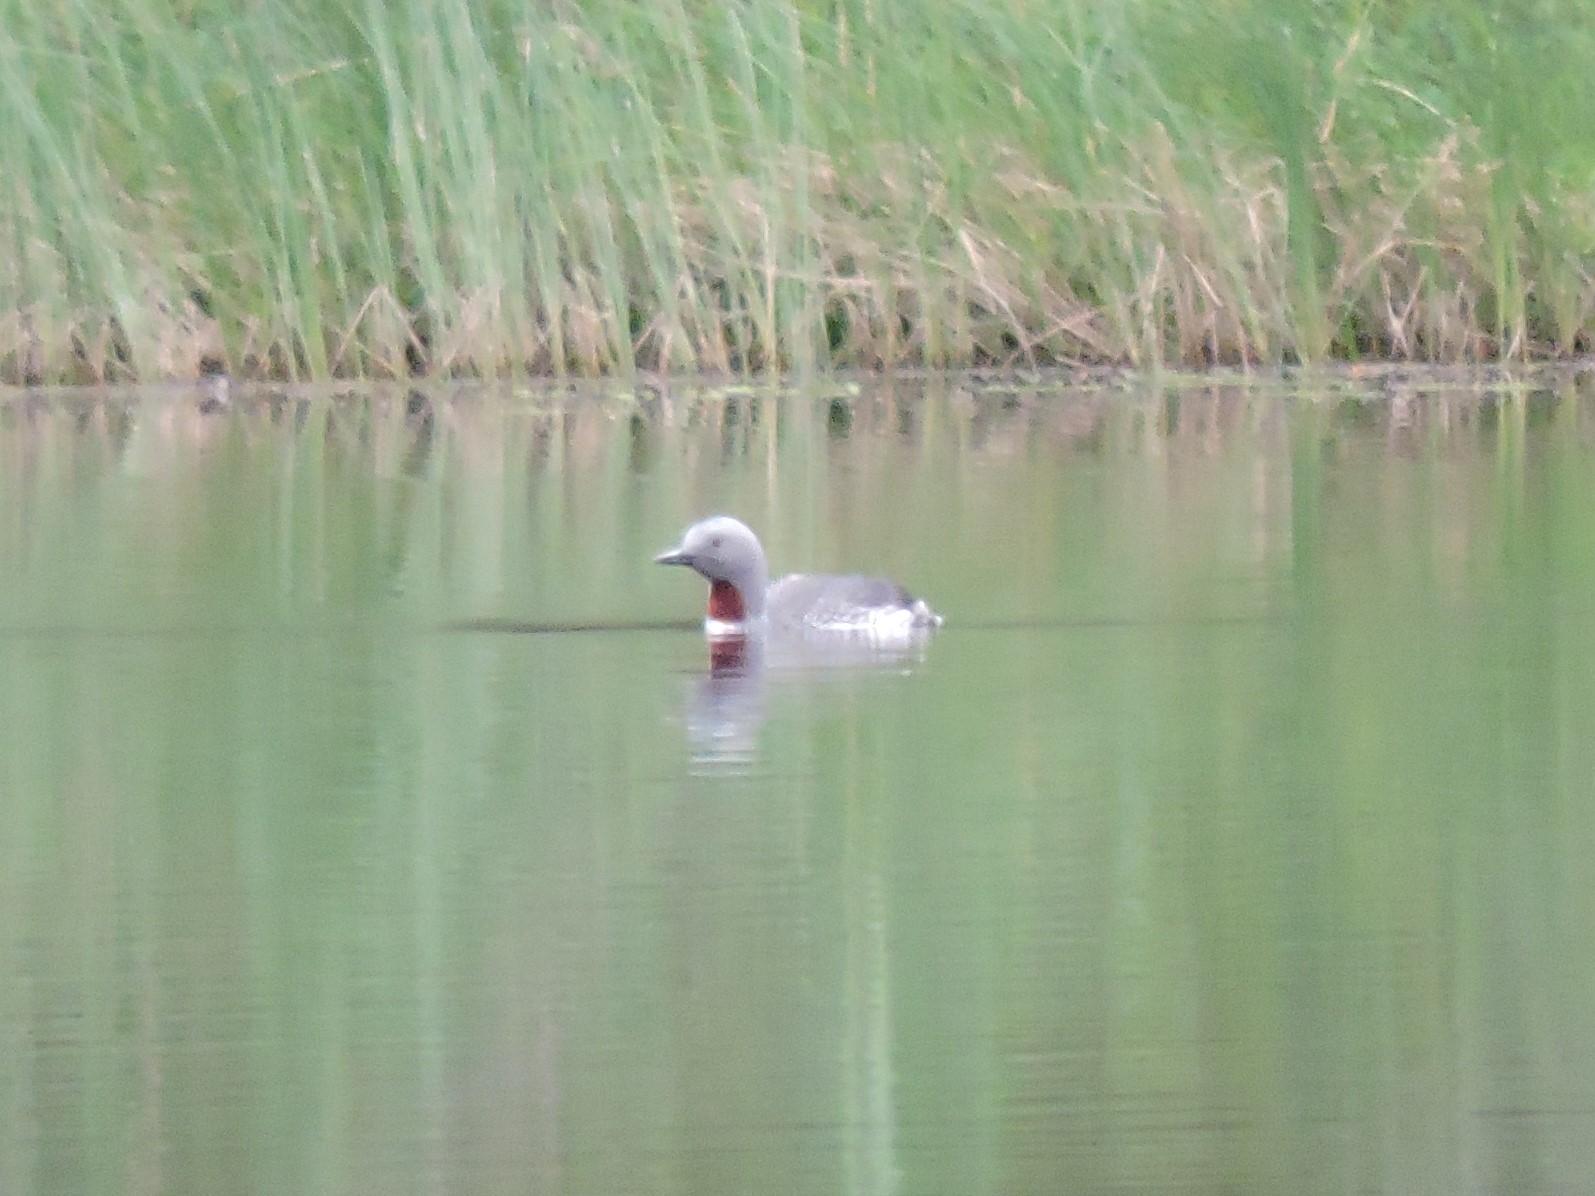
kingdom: Animalia
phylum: Chordata
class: Aves
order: Gaviiformes
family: Gaviidae
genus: Gavia
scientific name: Gavia stellata
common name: Red-throated loon
